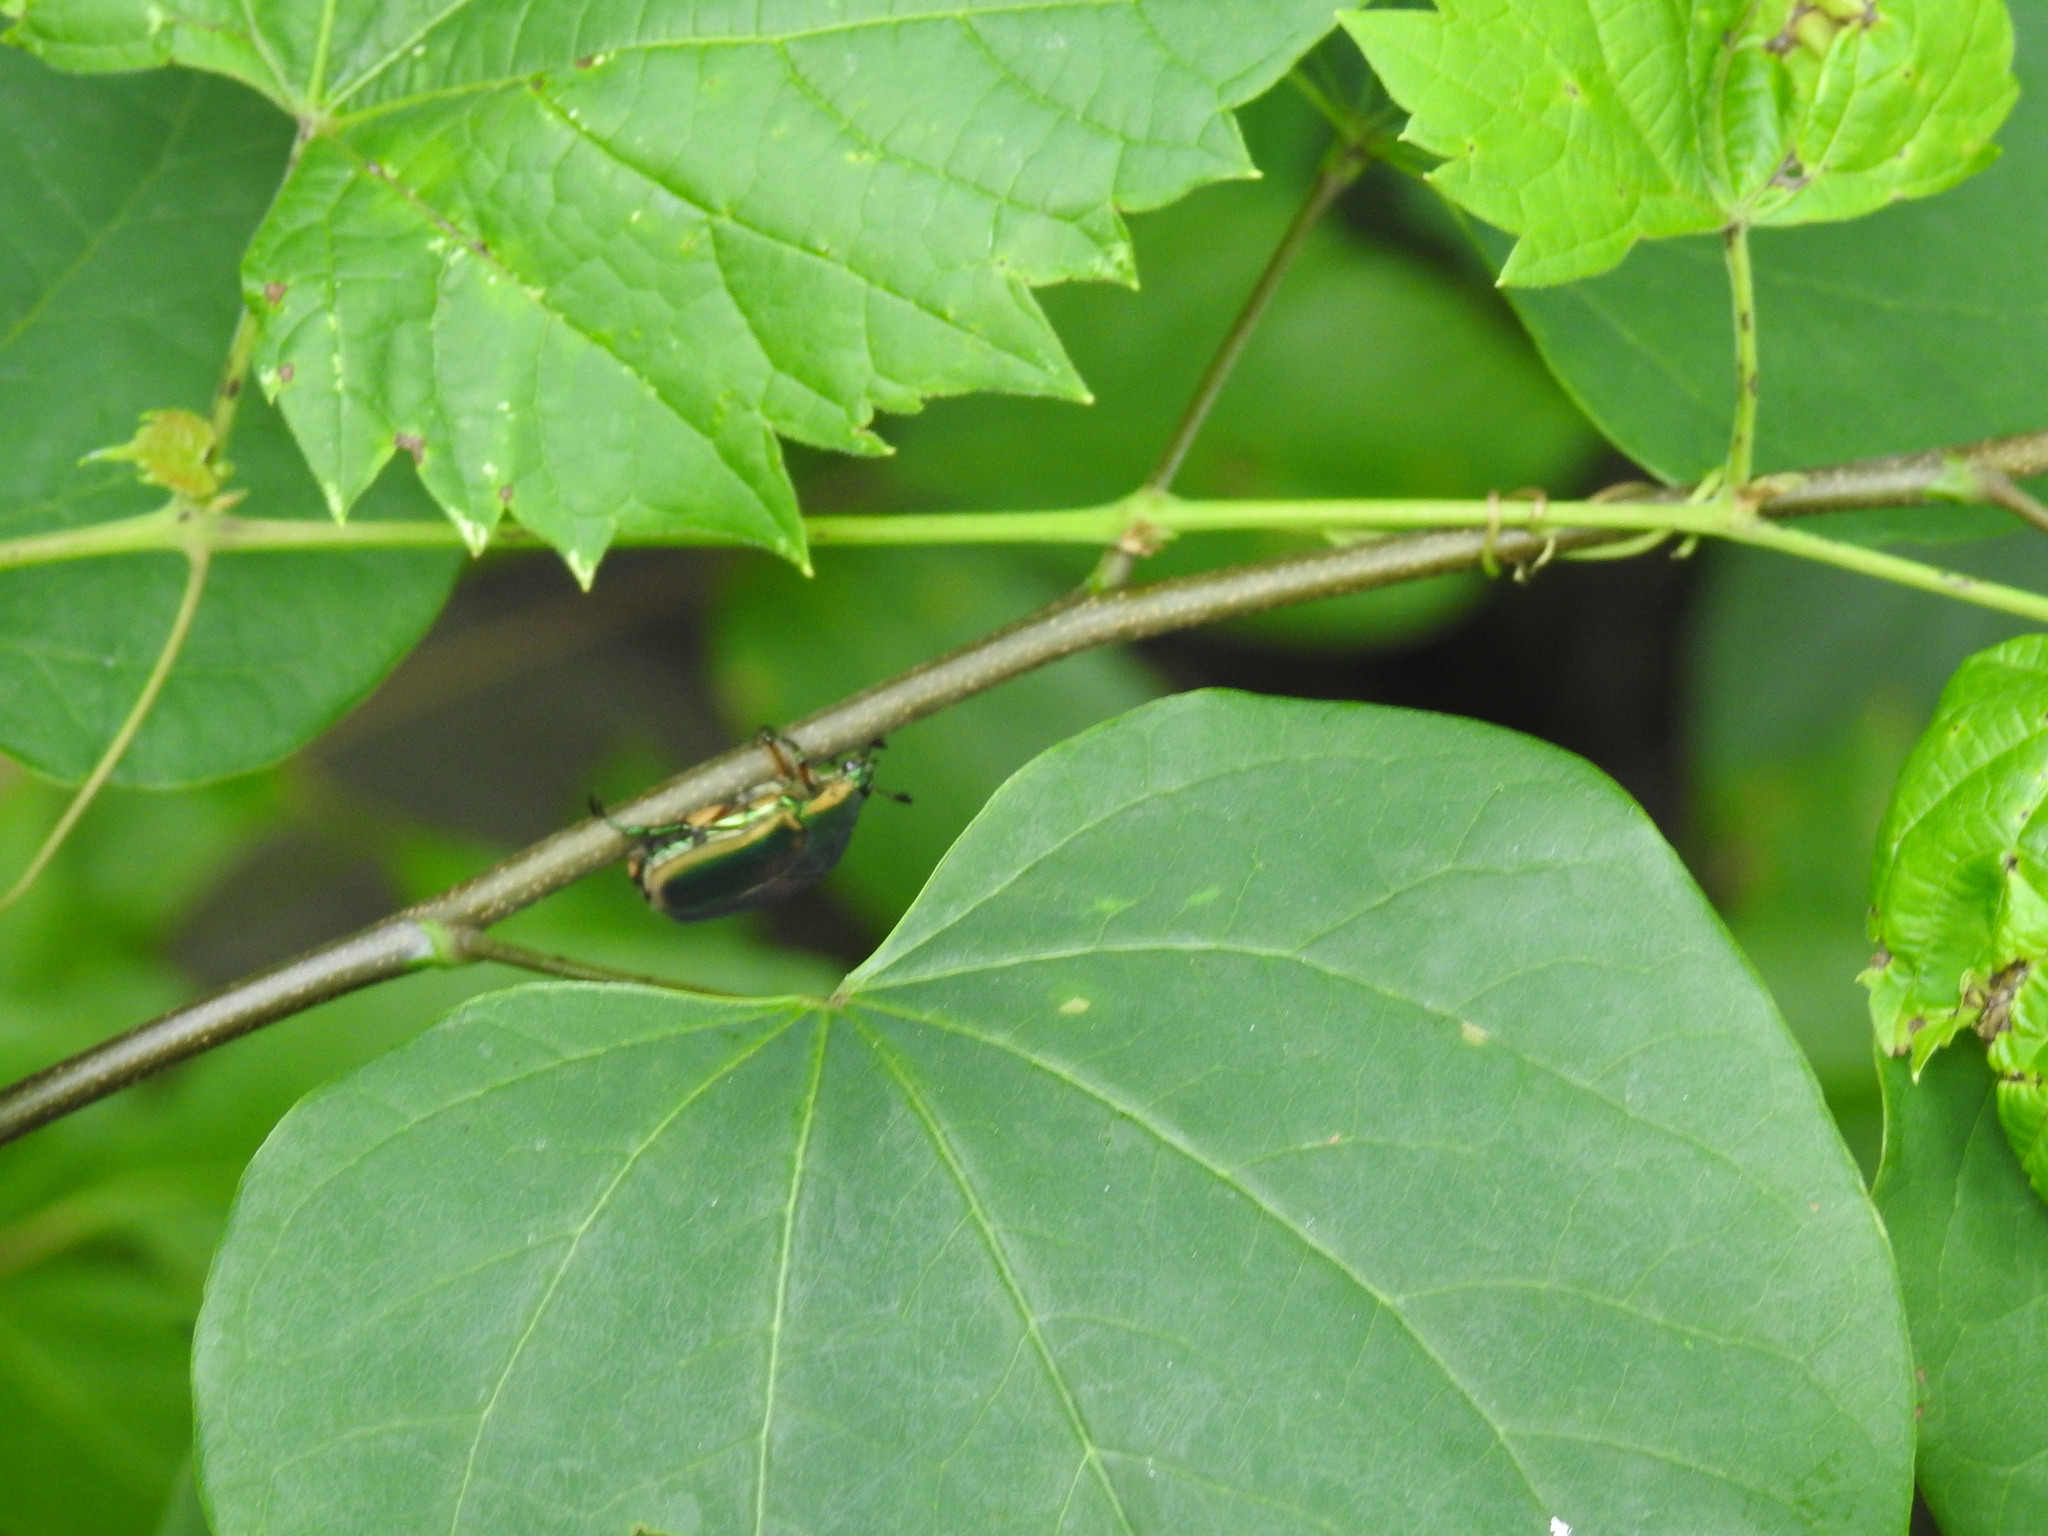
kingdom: Animalia
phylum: Arthropoda
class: Insecta
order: Coleoptera
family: Scarabaeidae
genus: Cotinis
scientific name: Cotinis nitida
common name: Common green june beetle
